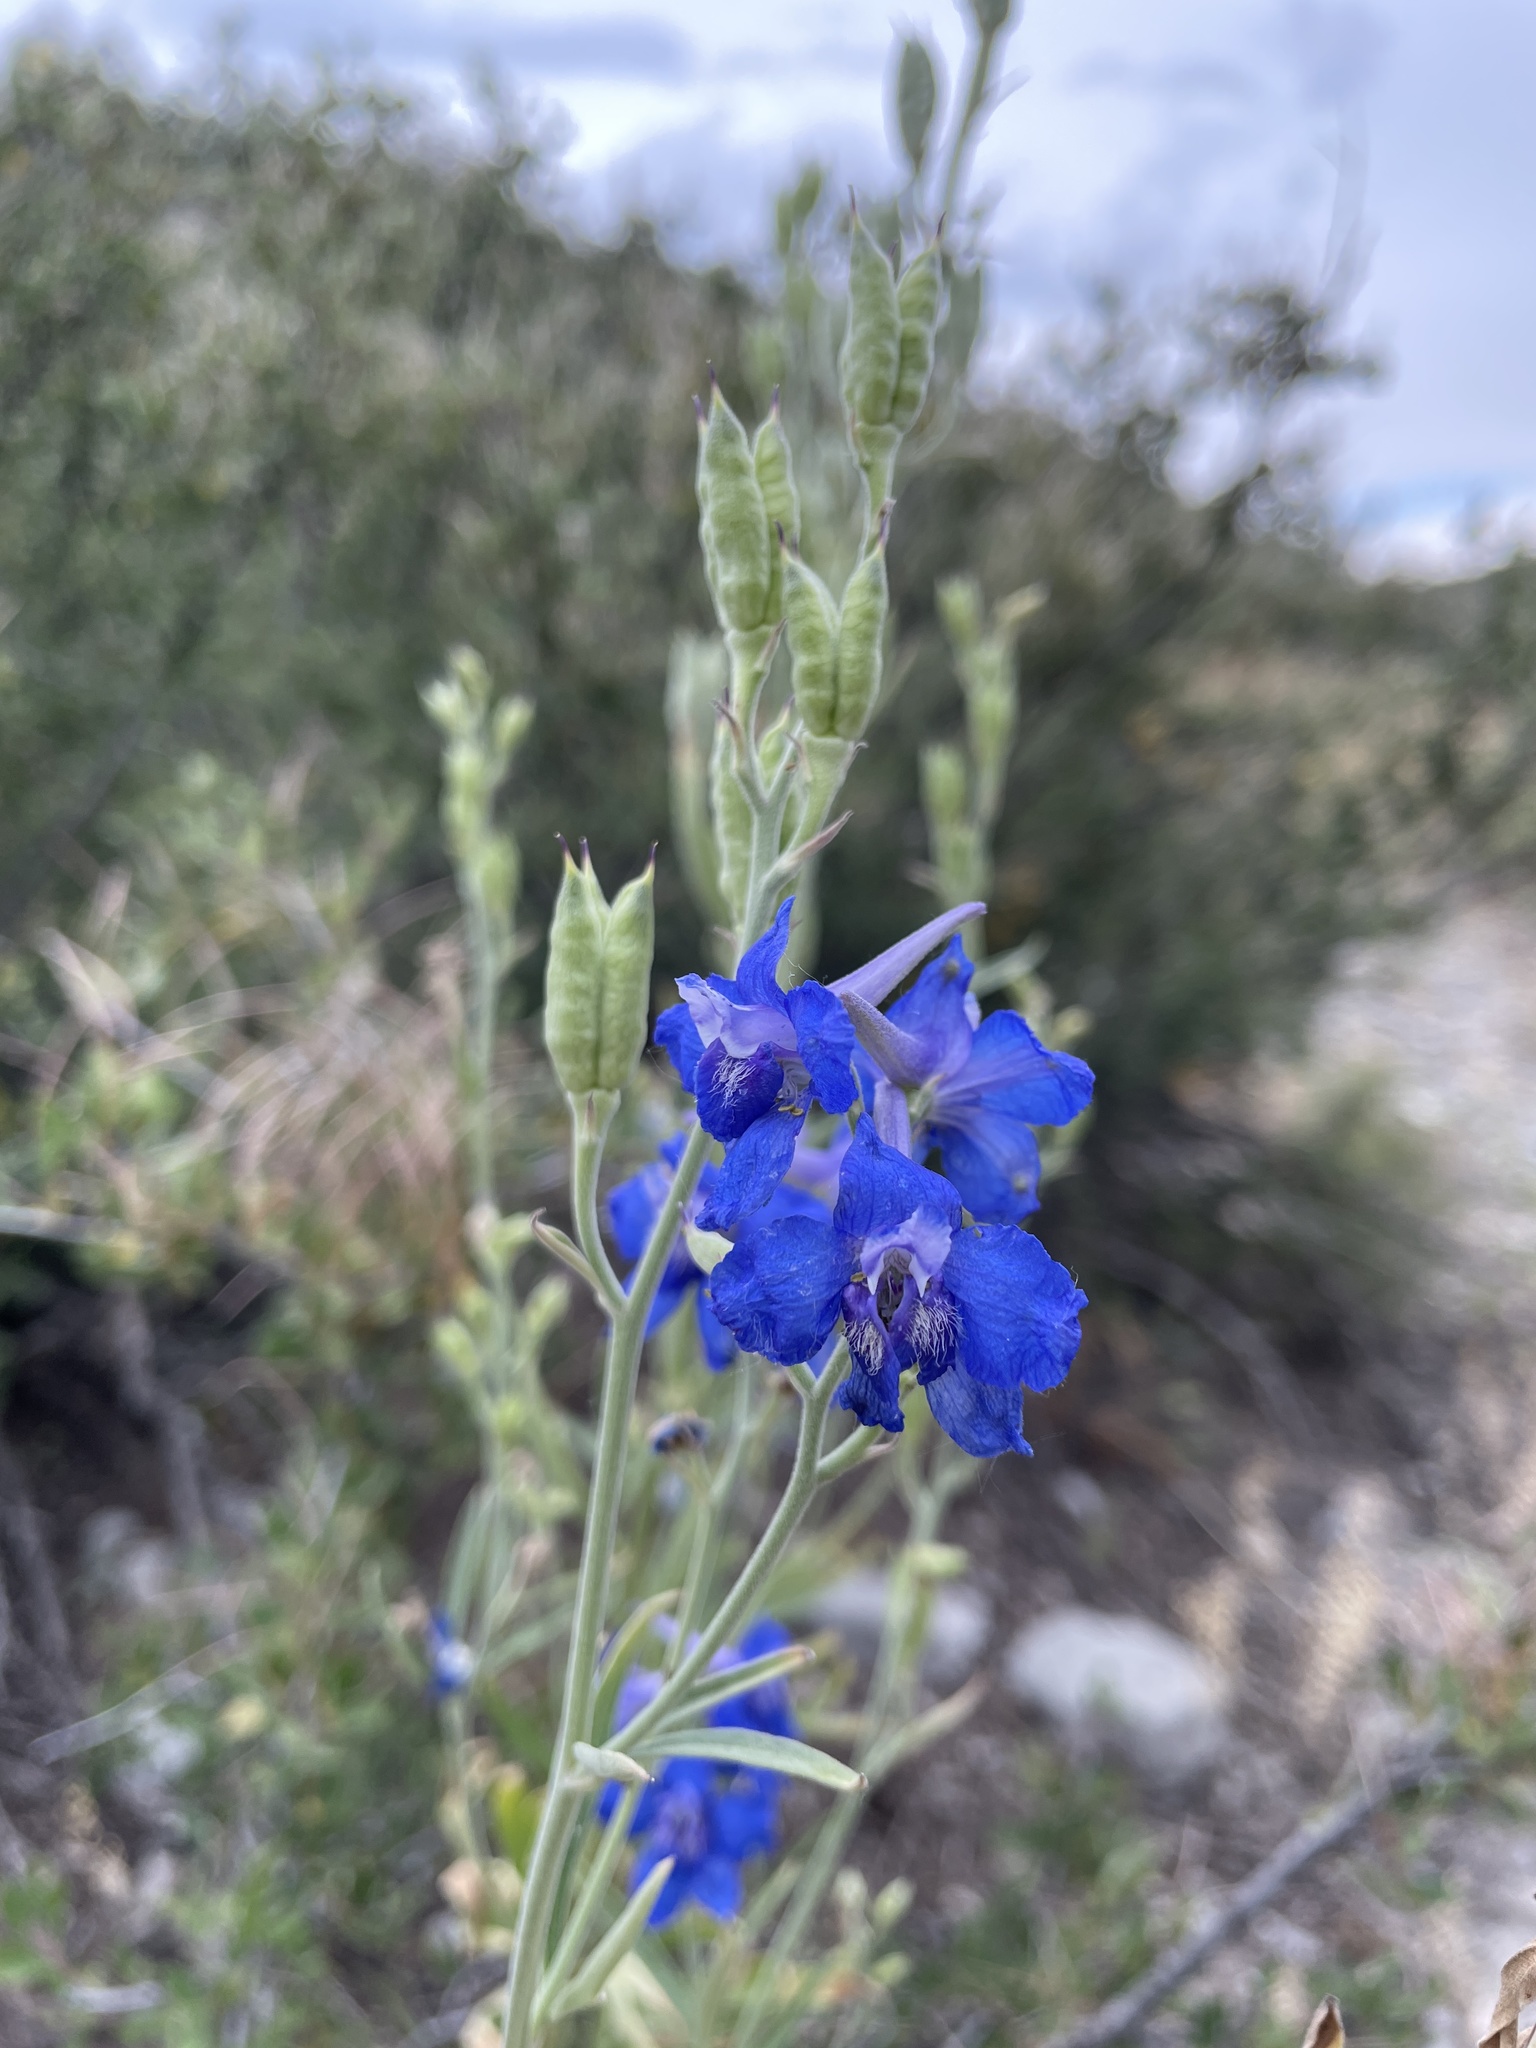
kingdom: Plantae
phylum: Tracheophyta
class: Magnoliopsida
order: Ranunculales
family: Ranunculaceae
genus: Delphinium
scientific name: Delphinium geyeri
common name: Geyer's larkspur
